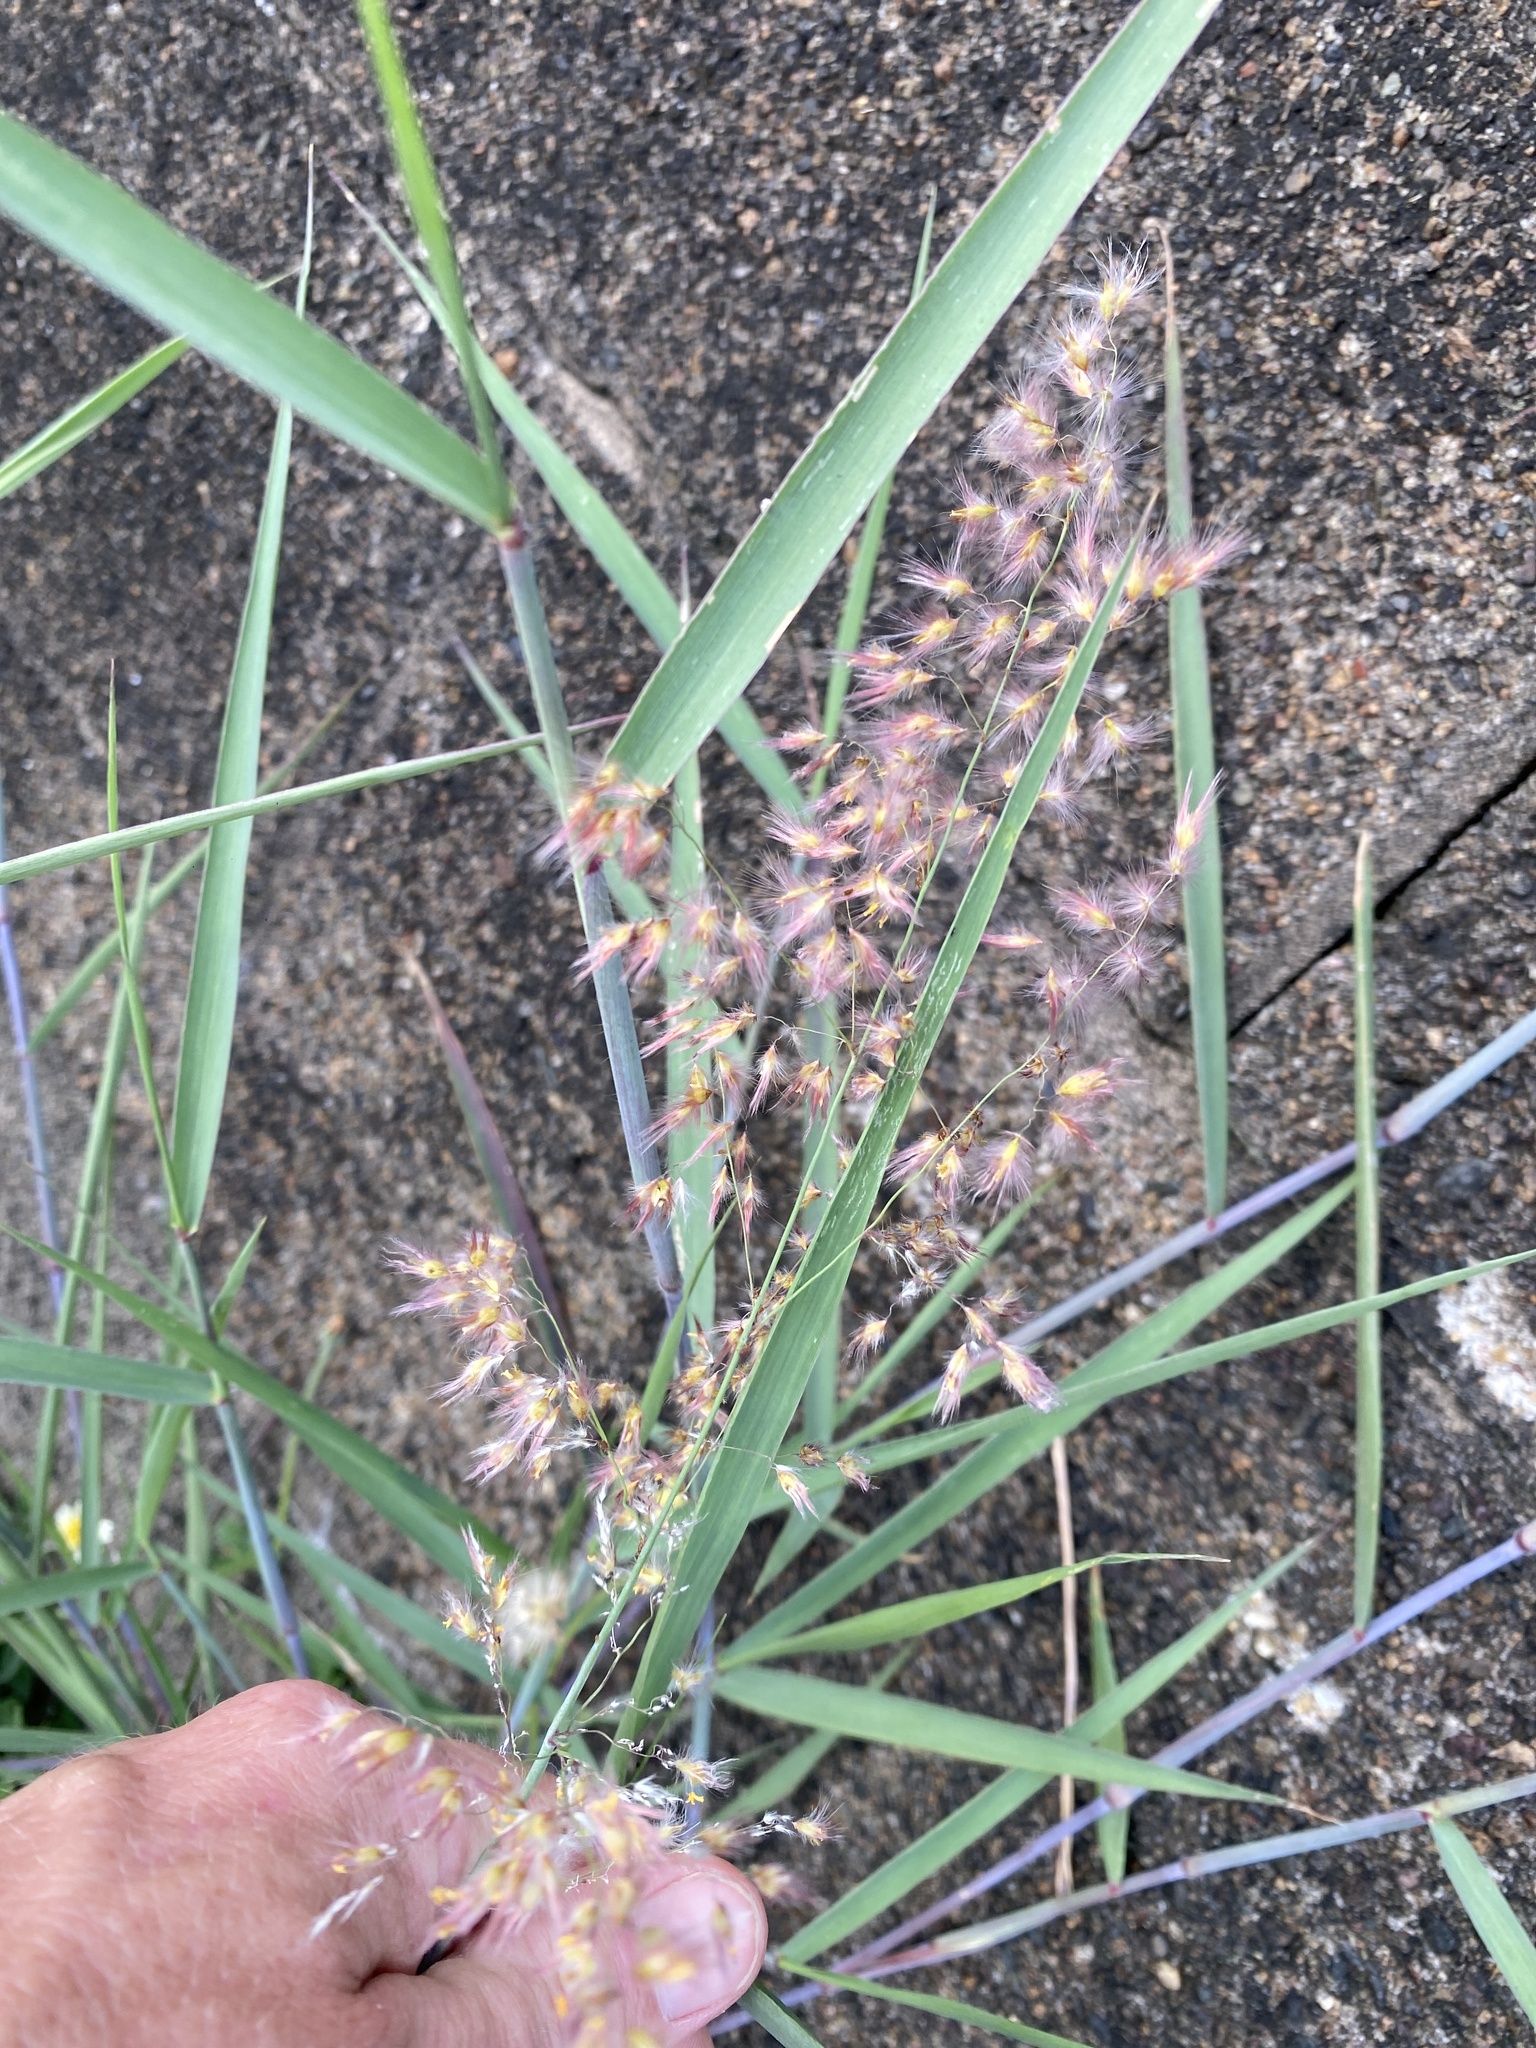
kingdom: Plantae
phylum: Tracheophyta
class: Liliopsida
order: Poales
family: Poaceae
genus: Melinis
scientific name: Melinis repens
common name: Rose natal grass
